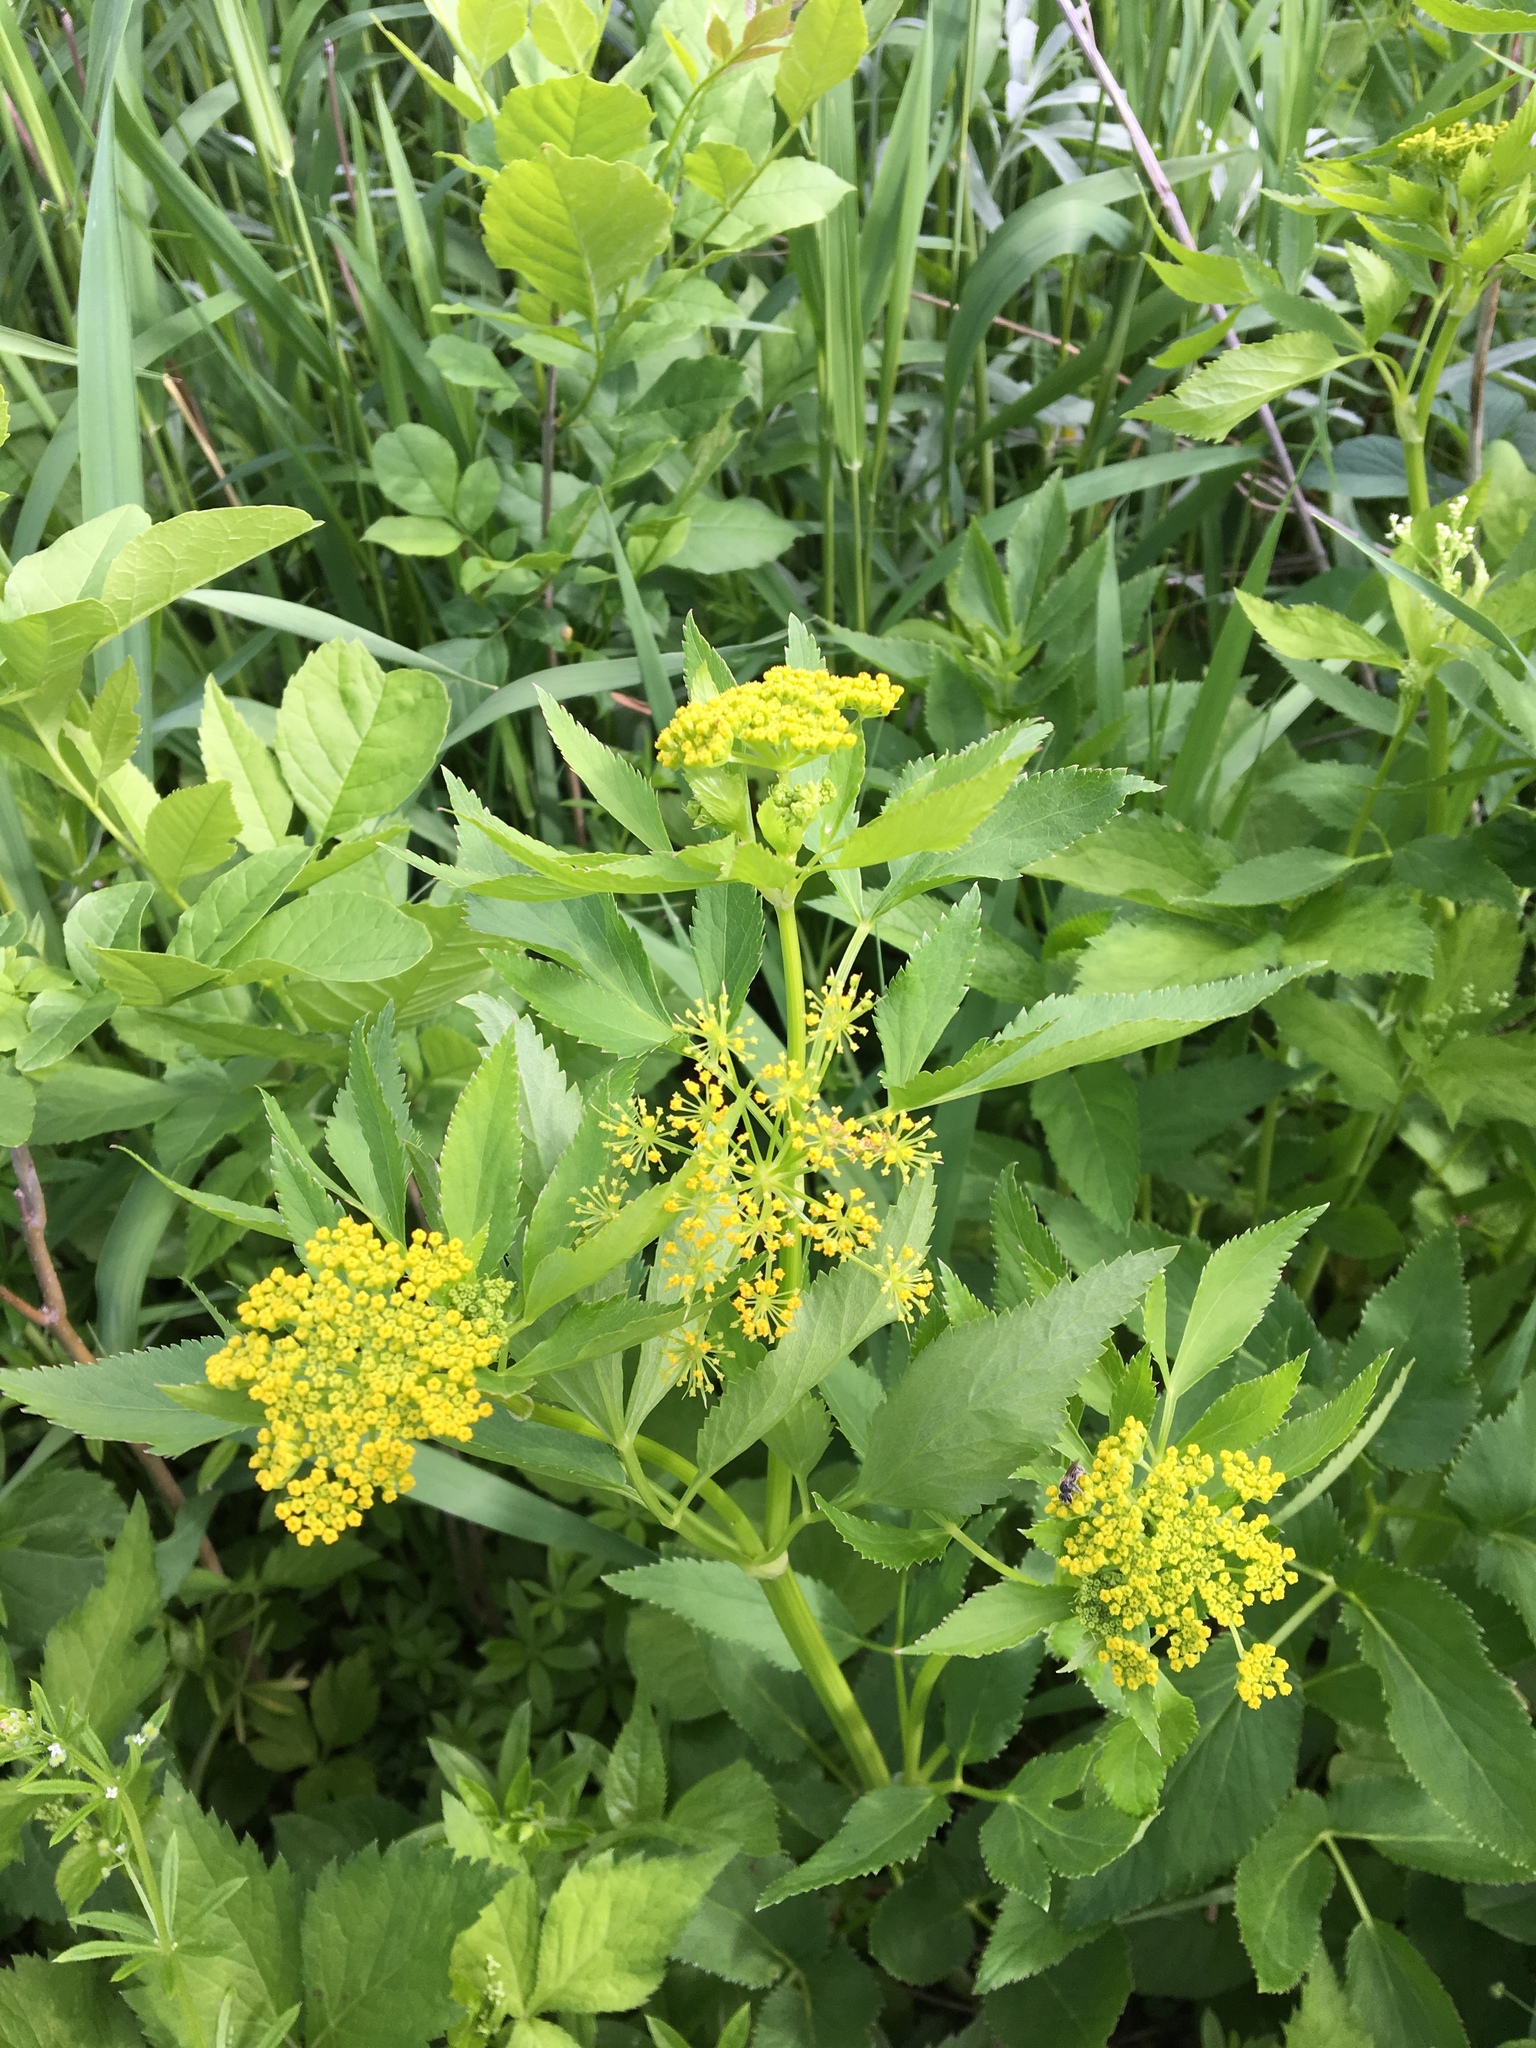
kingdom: Plantae
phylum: Tracheophyta
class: Magnoliopsida
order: Apiales
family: Apiaceae
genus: Zizia
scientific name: Zizia aurea
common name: Golden alexanders
